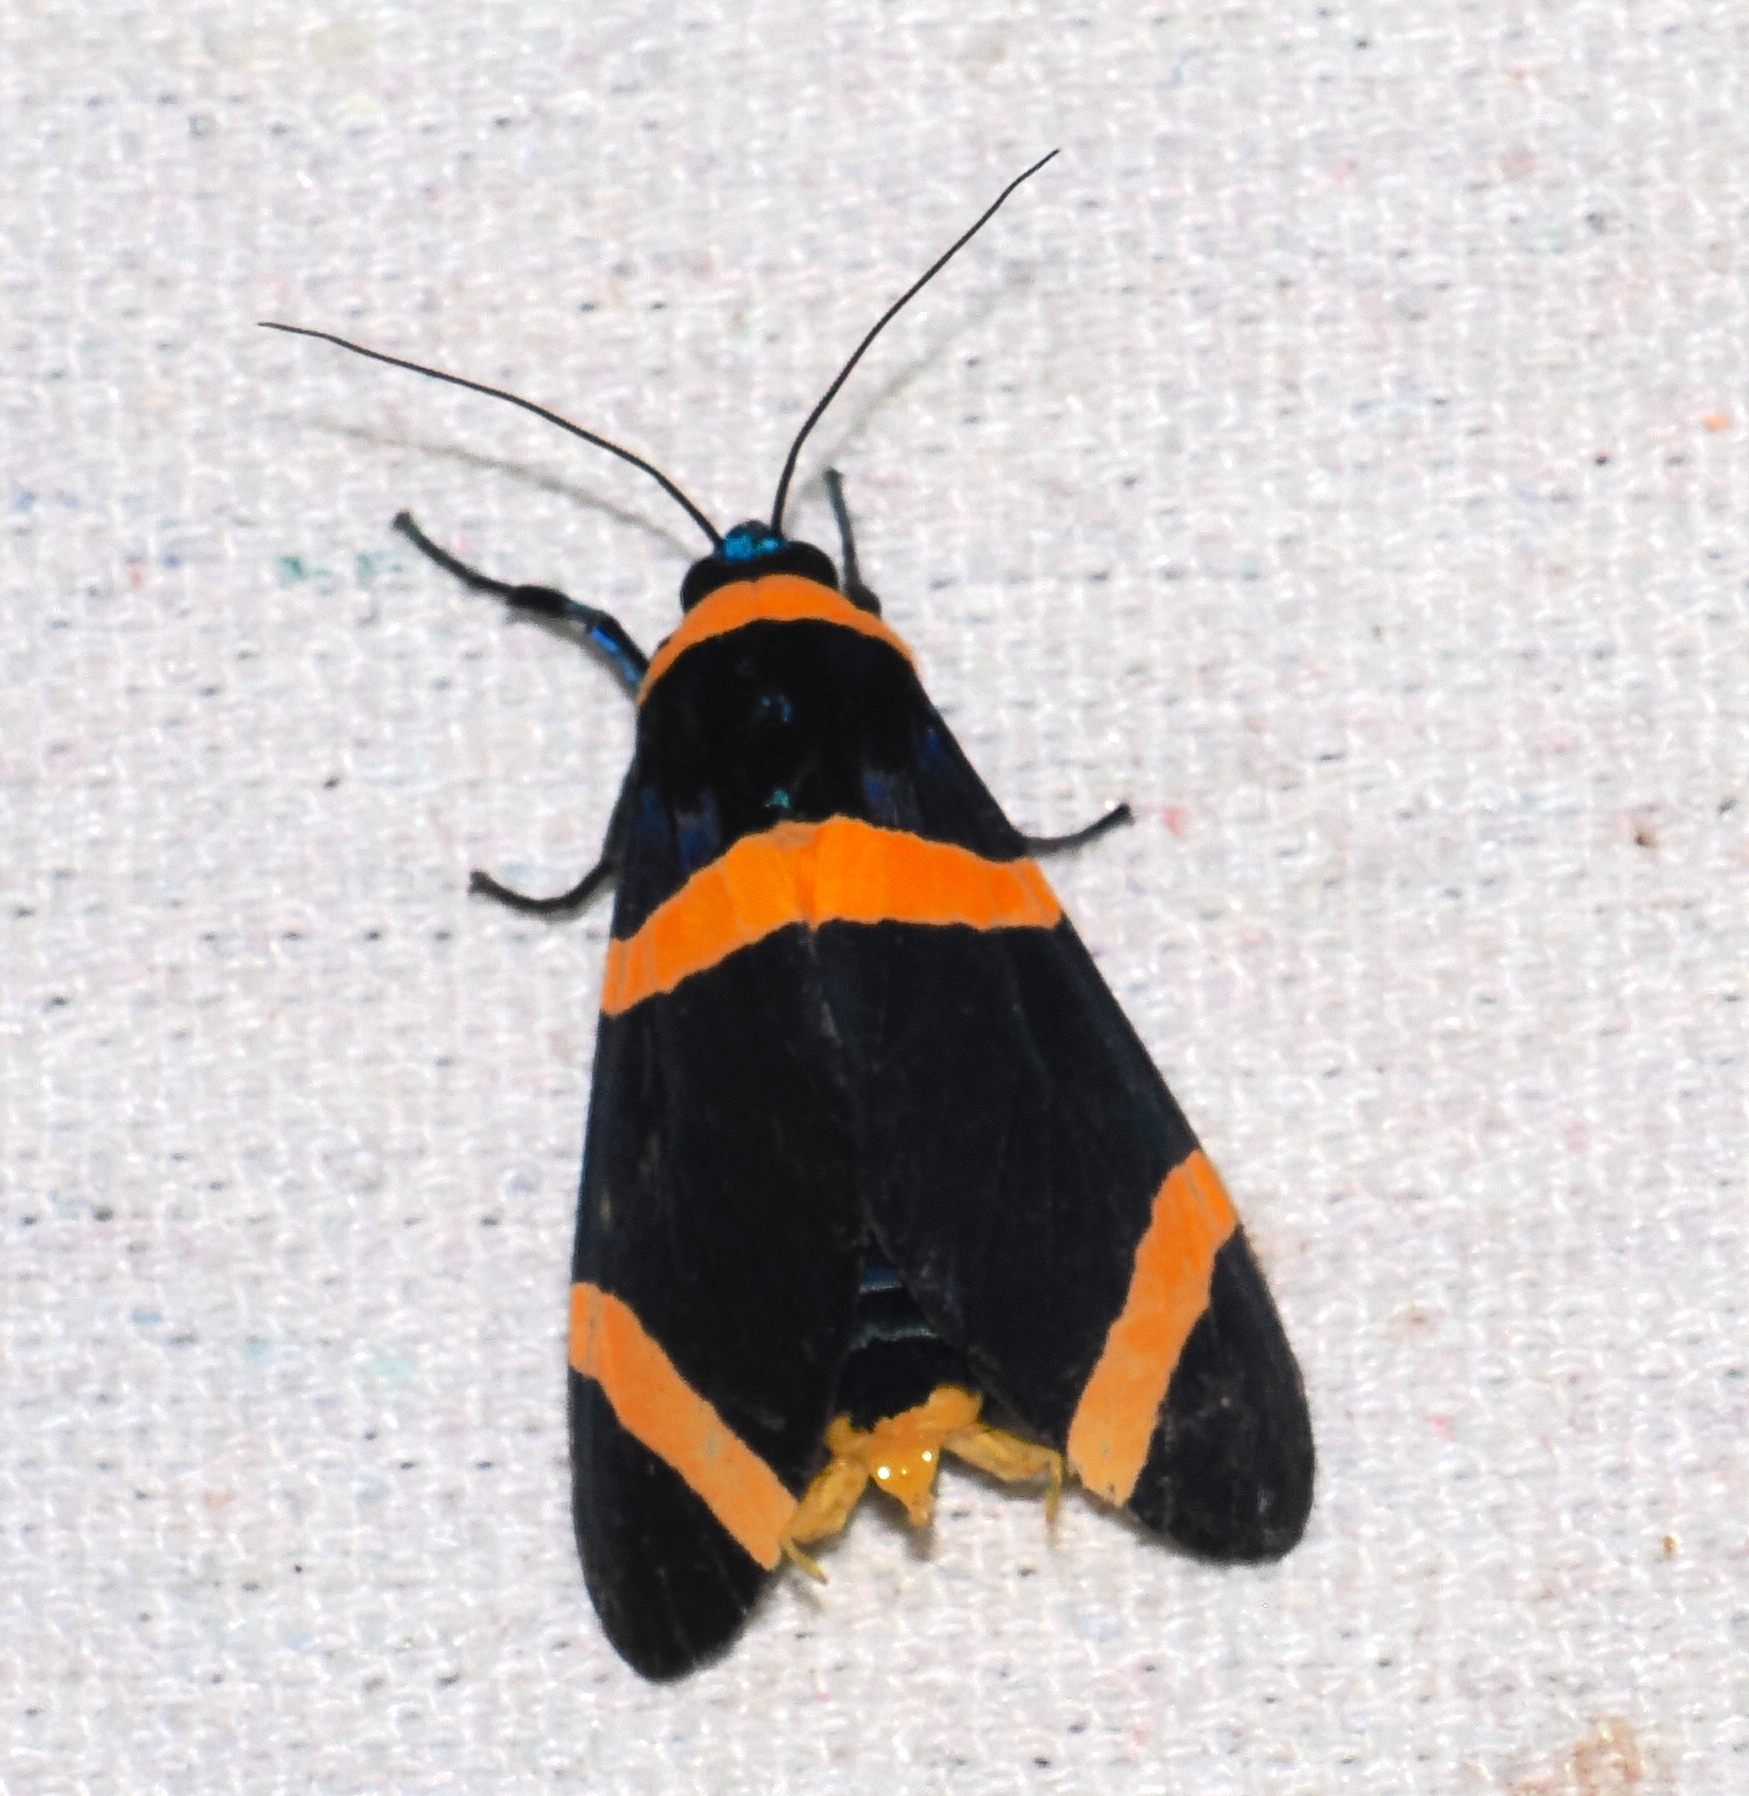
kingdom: Animalia
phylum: Arthropoda
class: Insecta
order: Lepidoptera
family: Erebidae
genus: Viviennea
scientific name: Viviennea griseonitens
